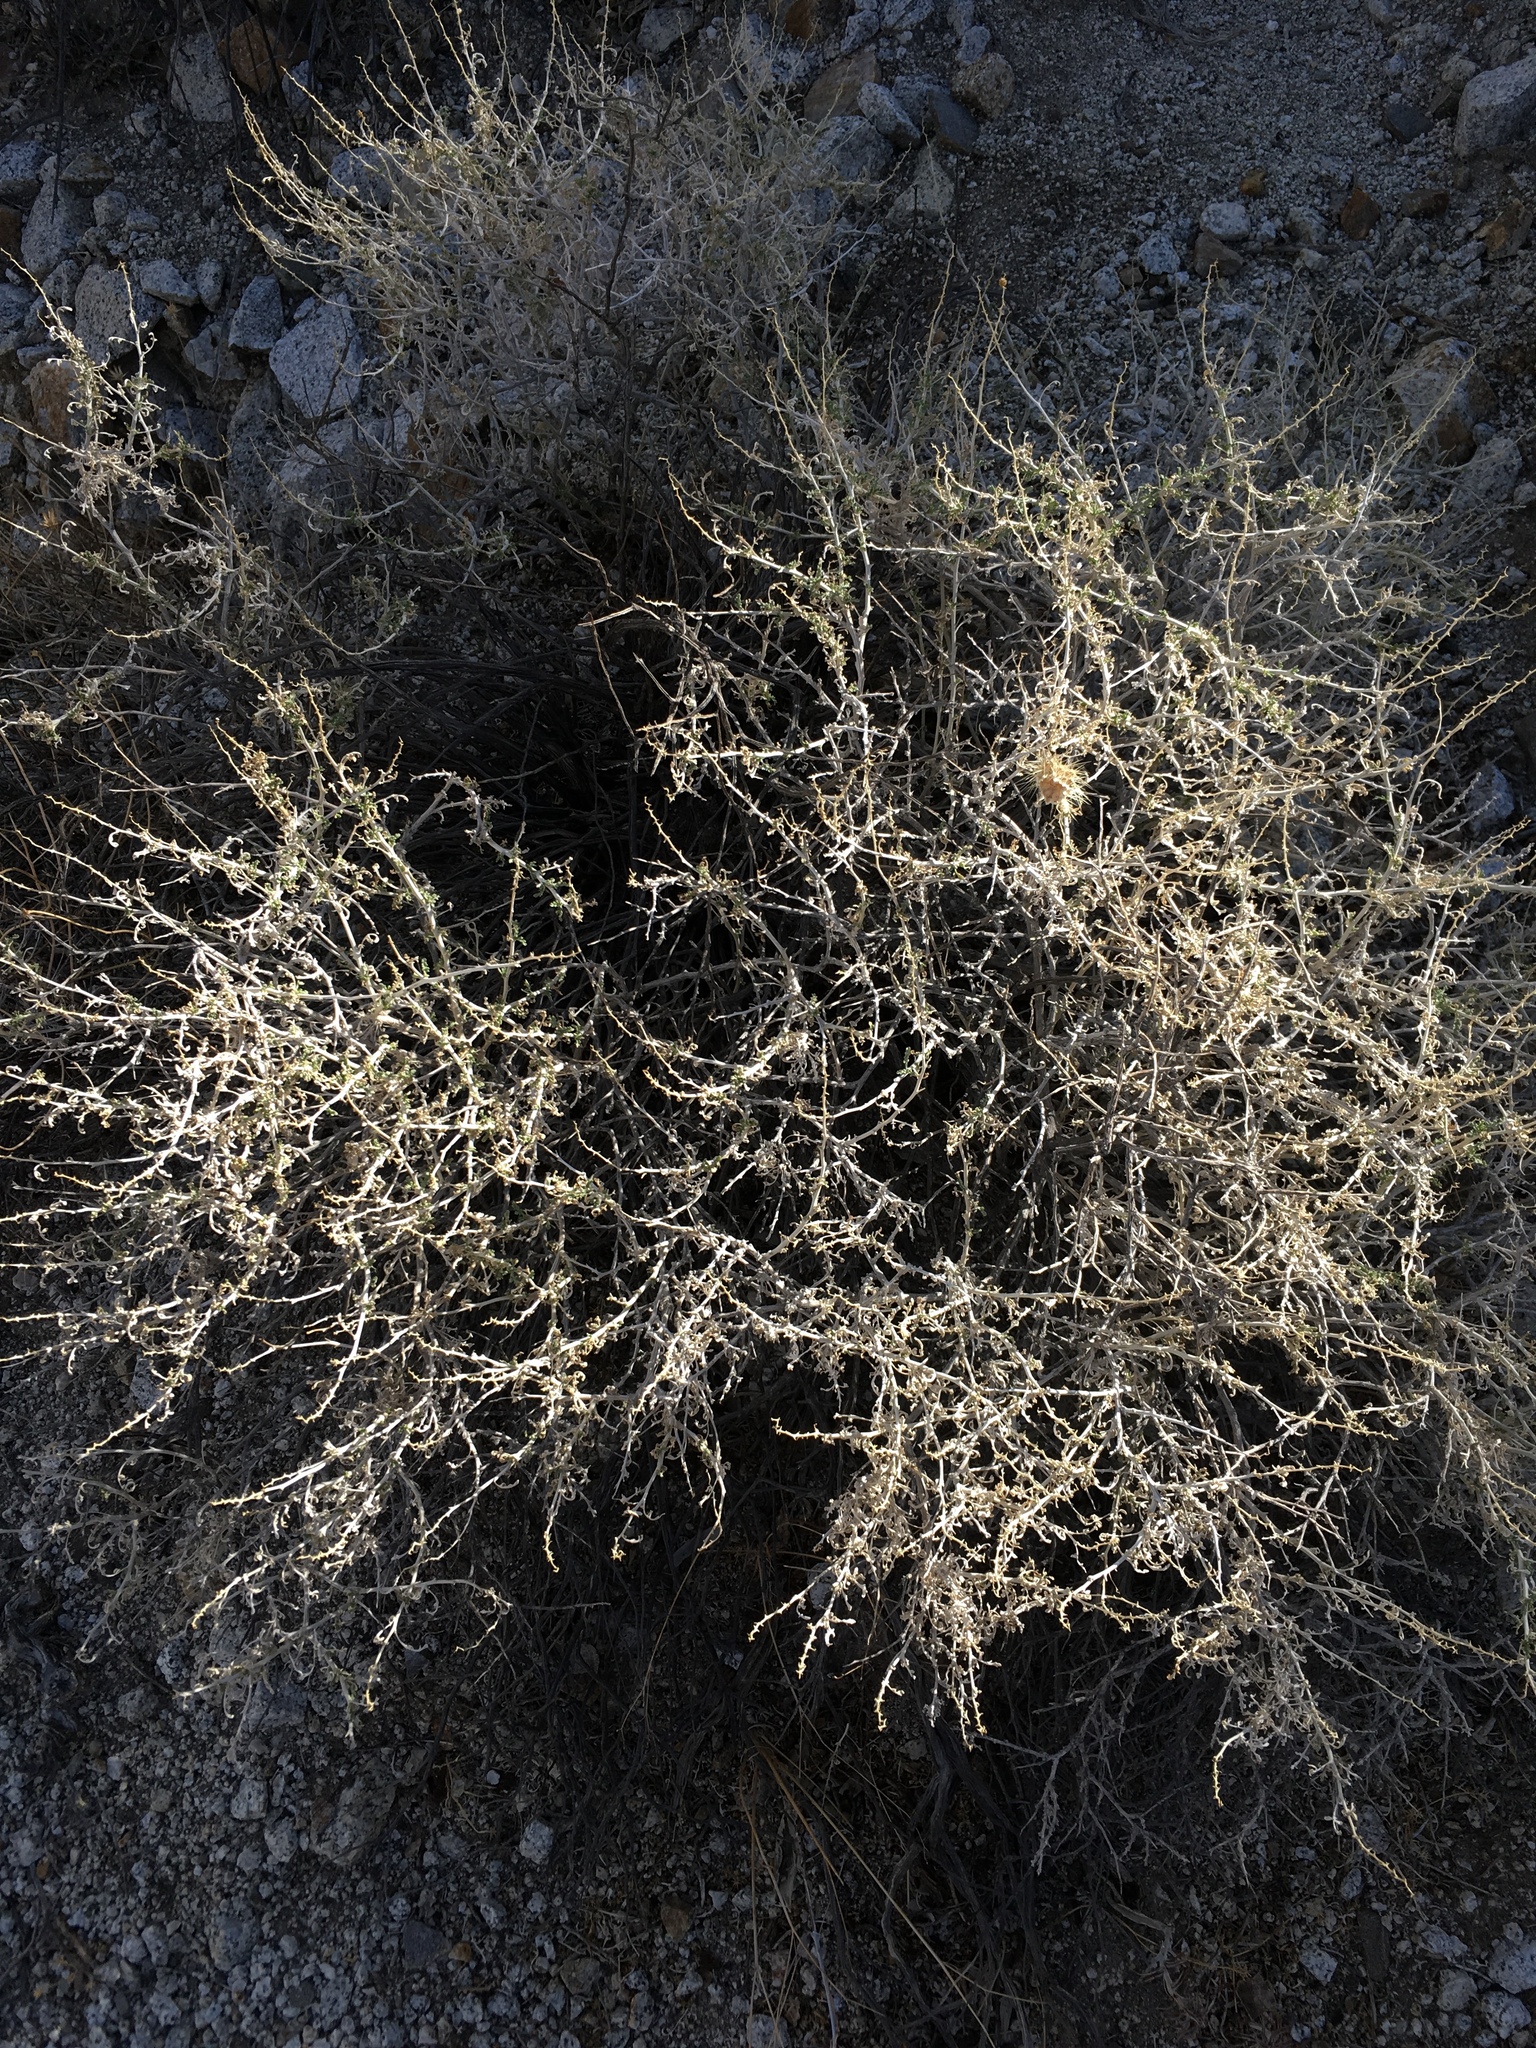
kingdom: Plantae
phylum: Tracheophyta
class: Magnoliopsida
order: Asterales
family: Asteraceae
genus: Ambrosia
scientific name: Ambrosia dumosa
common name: Bur-sage
